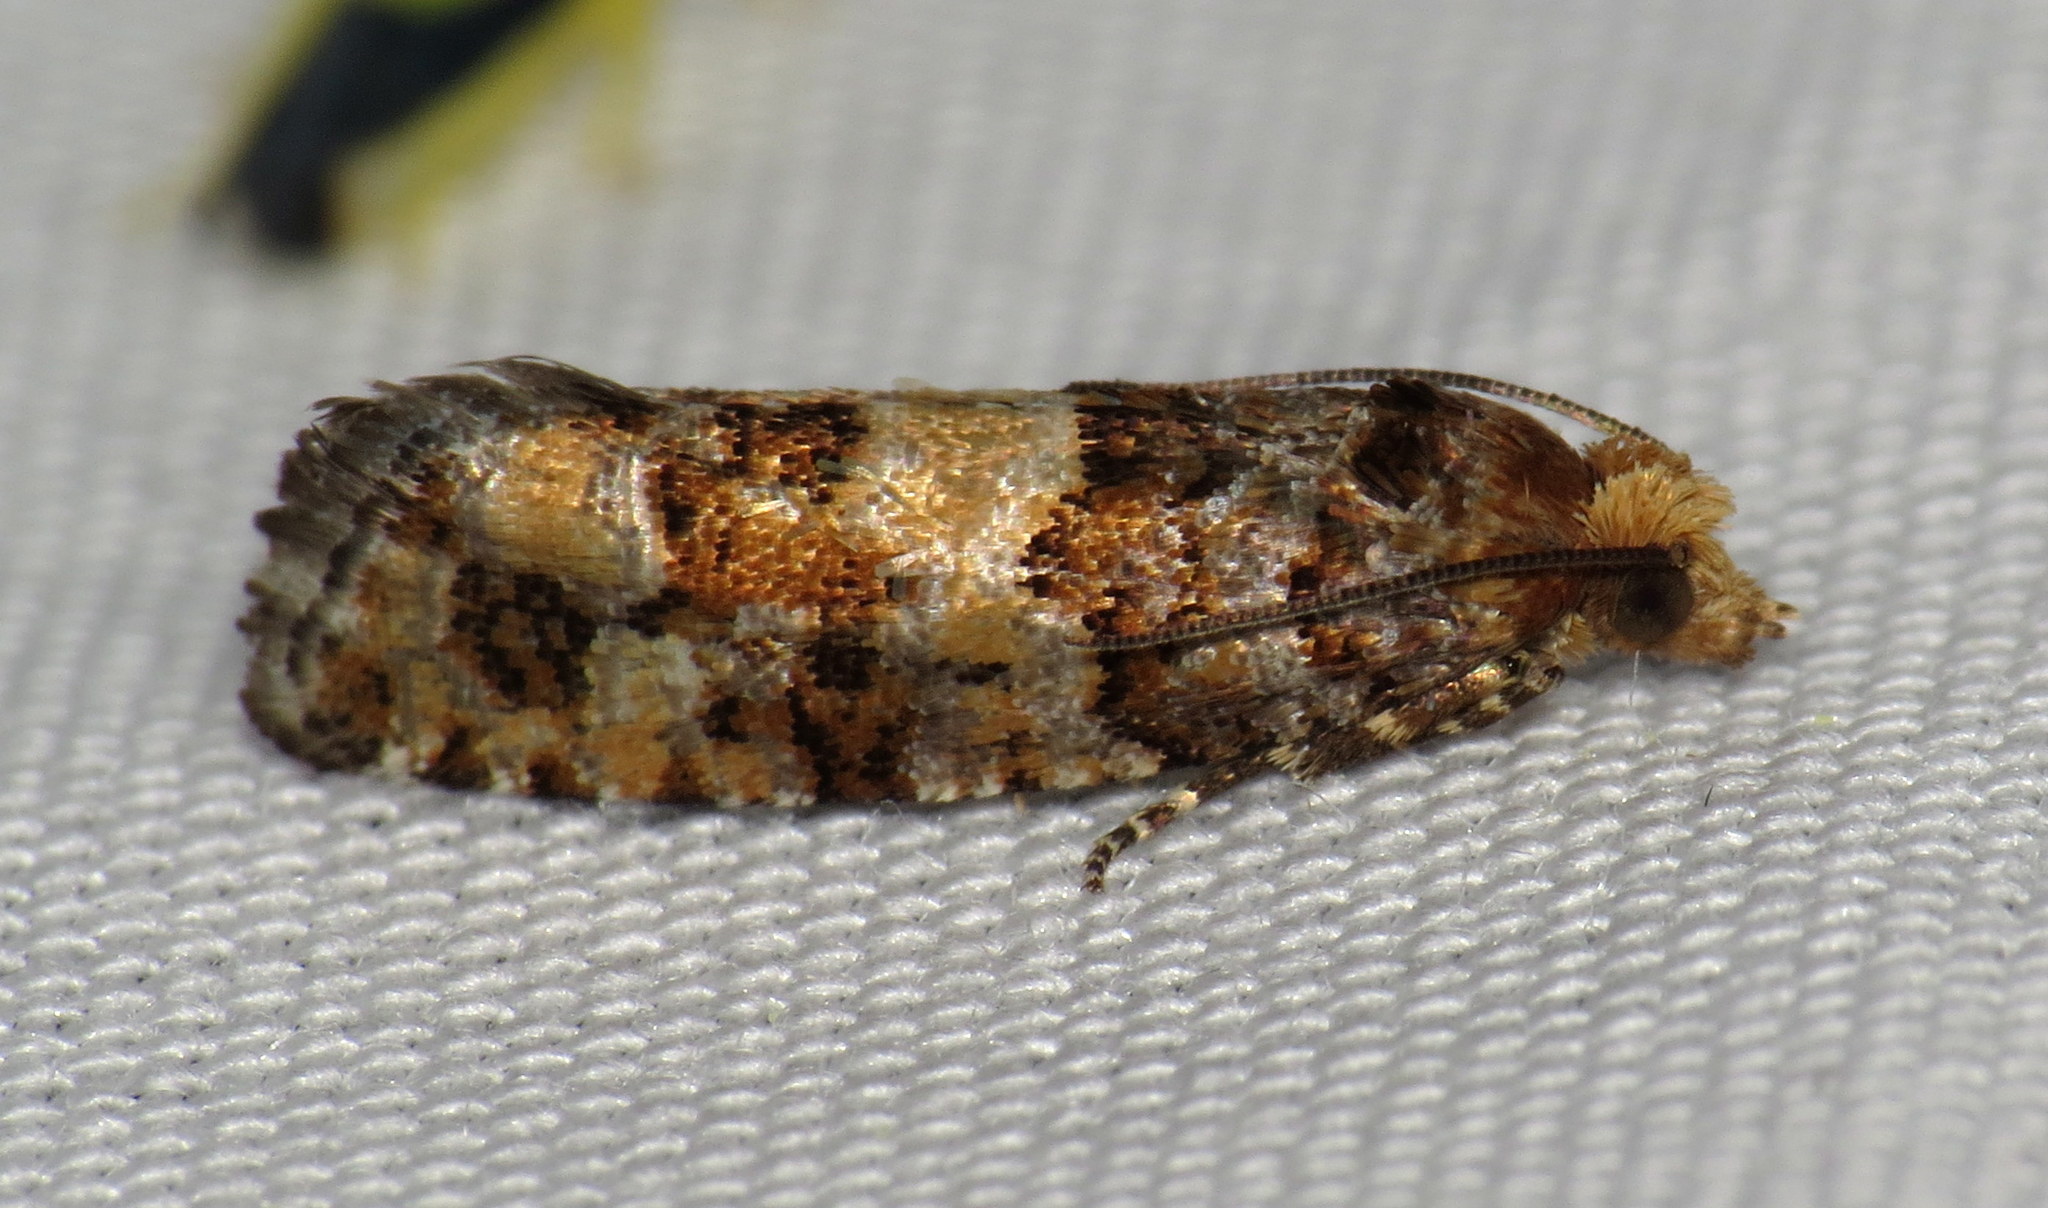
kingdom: Animalia
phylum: Arthropoda
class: Insecta
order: Lepidoptera
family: Tortricidae
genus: Eucopina
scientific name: Eucopina tocullionana
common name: White pinecone borer moth
